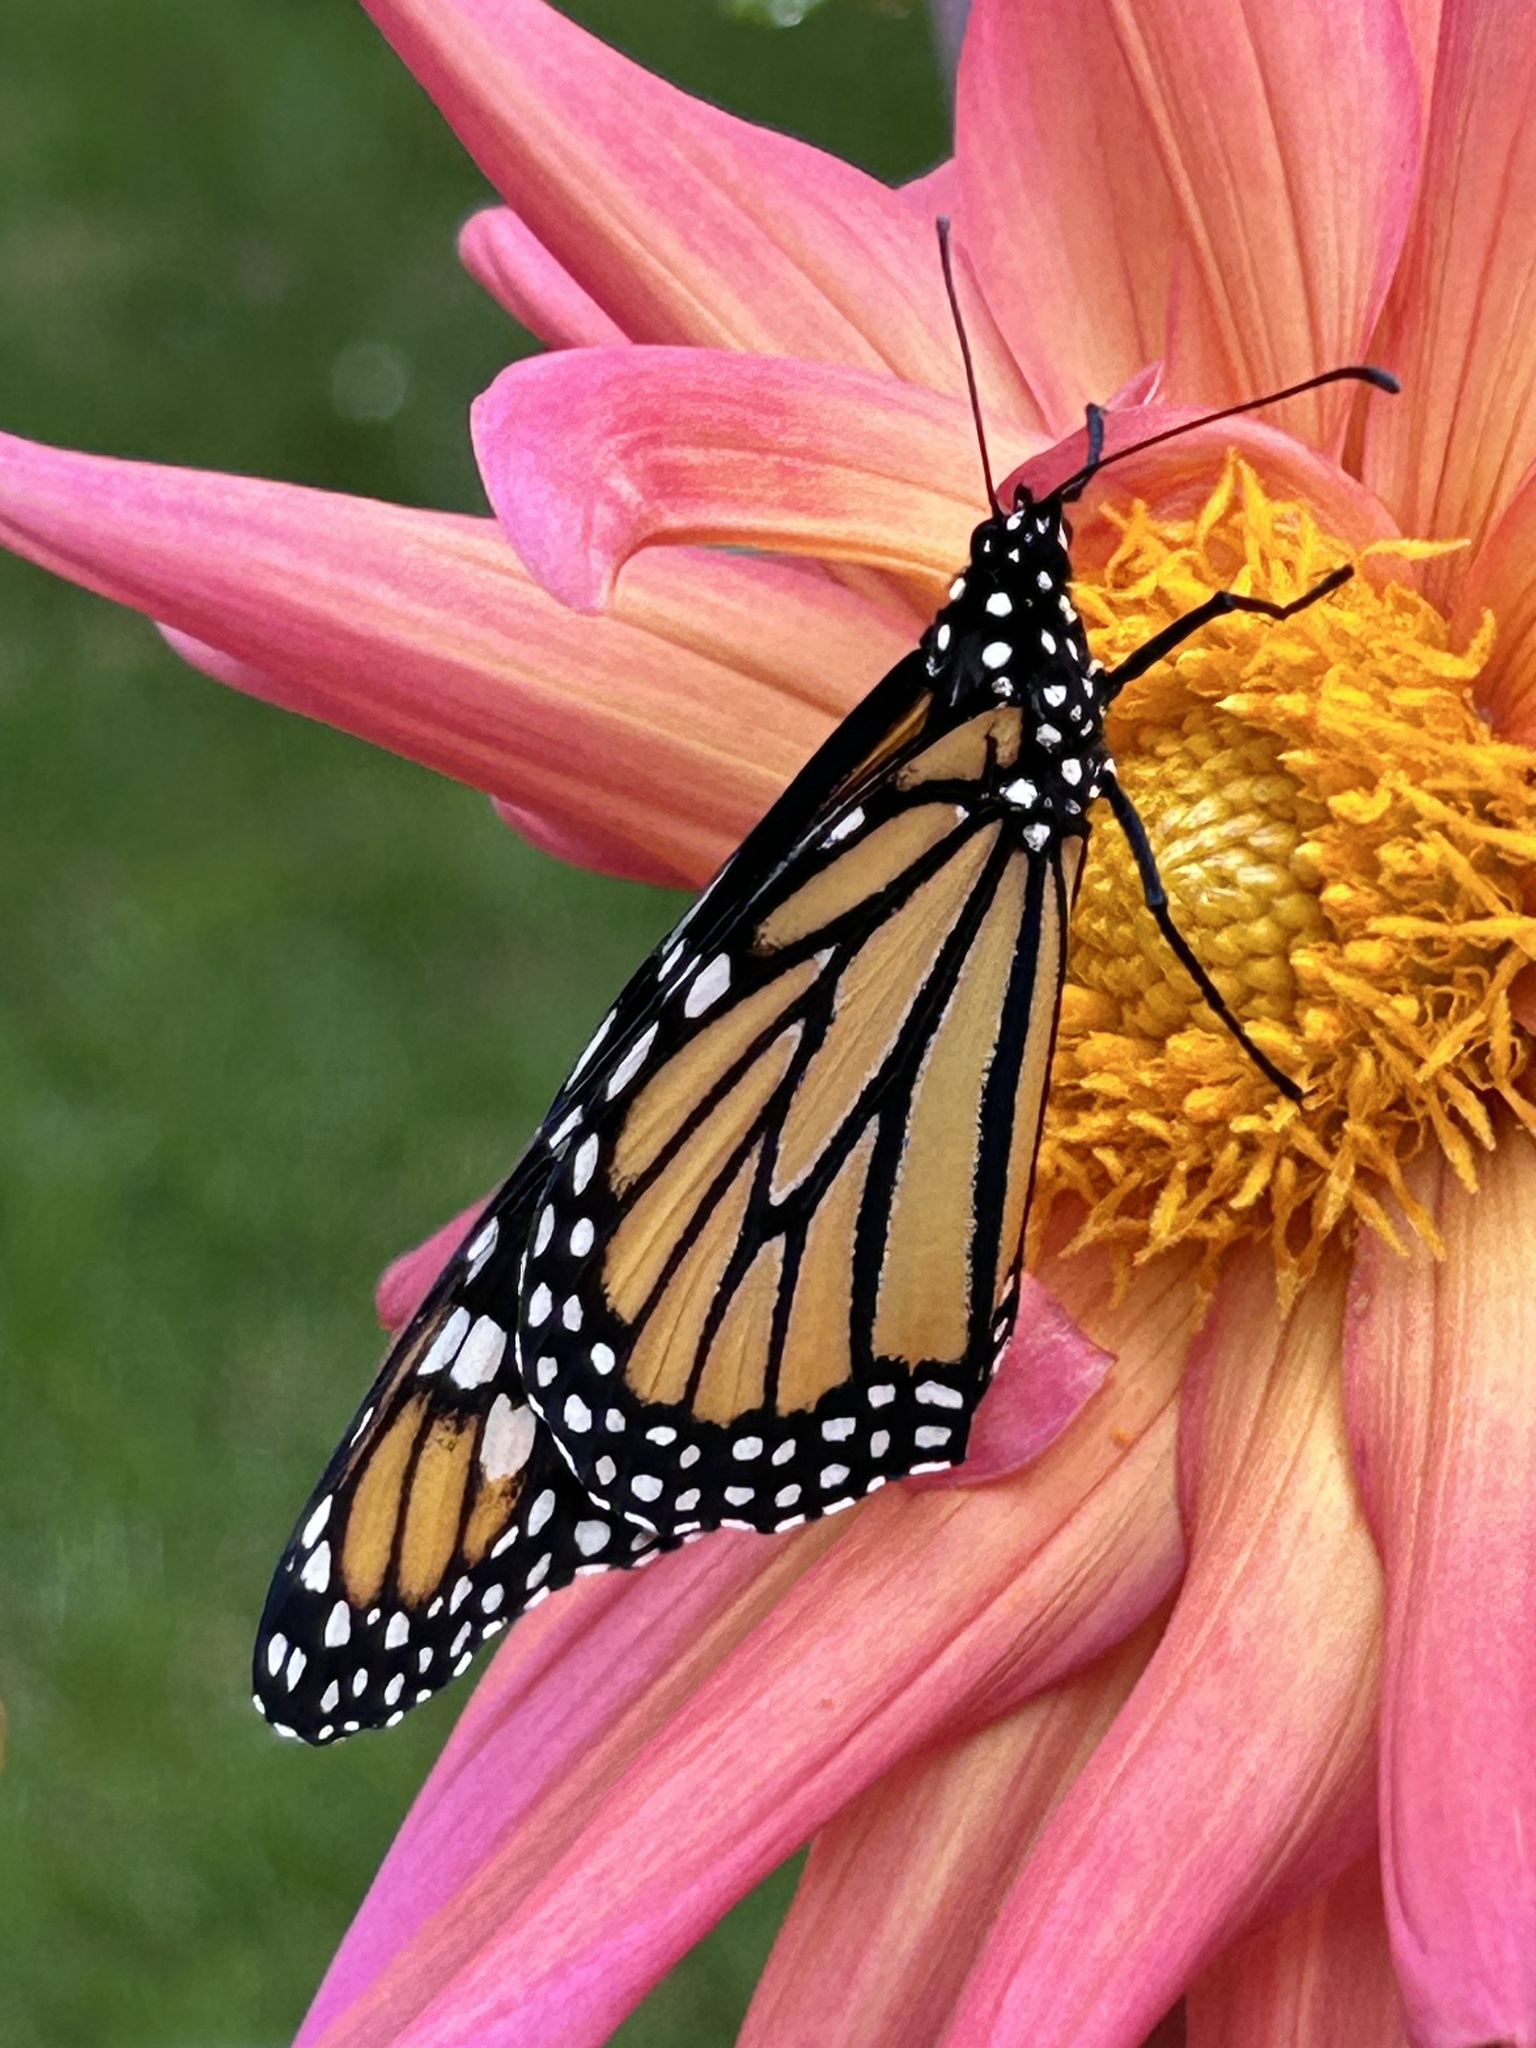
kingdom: Animalia
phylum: Arthropoda
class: Insecta
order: Lepidoptera
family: Nymphalidae
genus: Danaus
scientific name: Danaus plexippus
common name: Monarch
